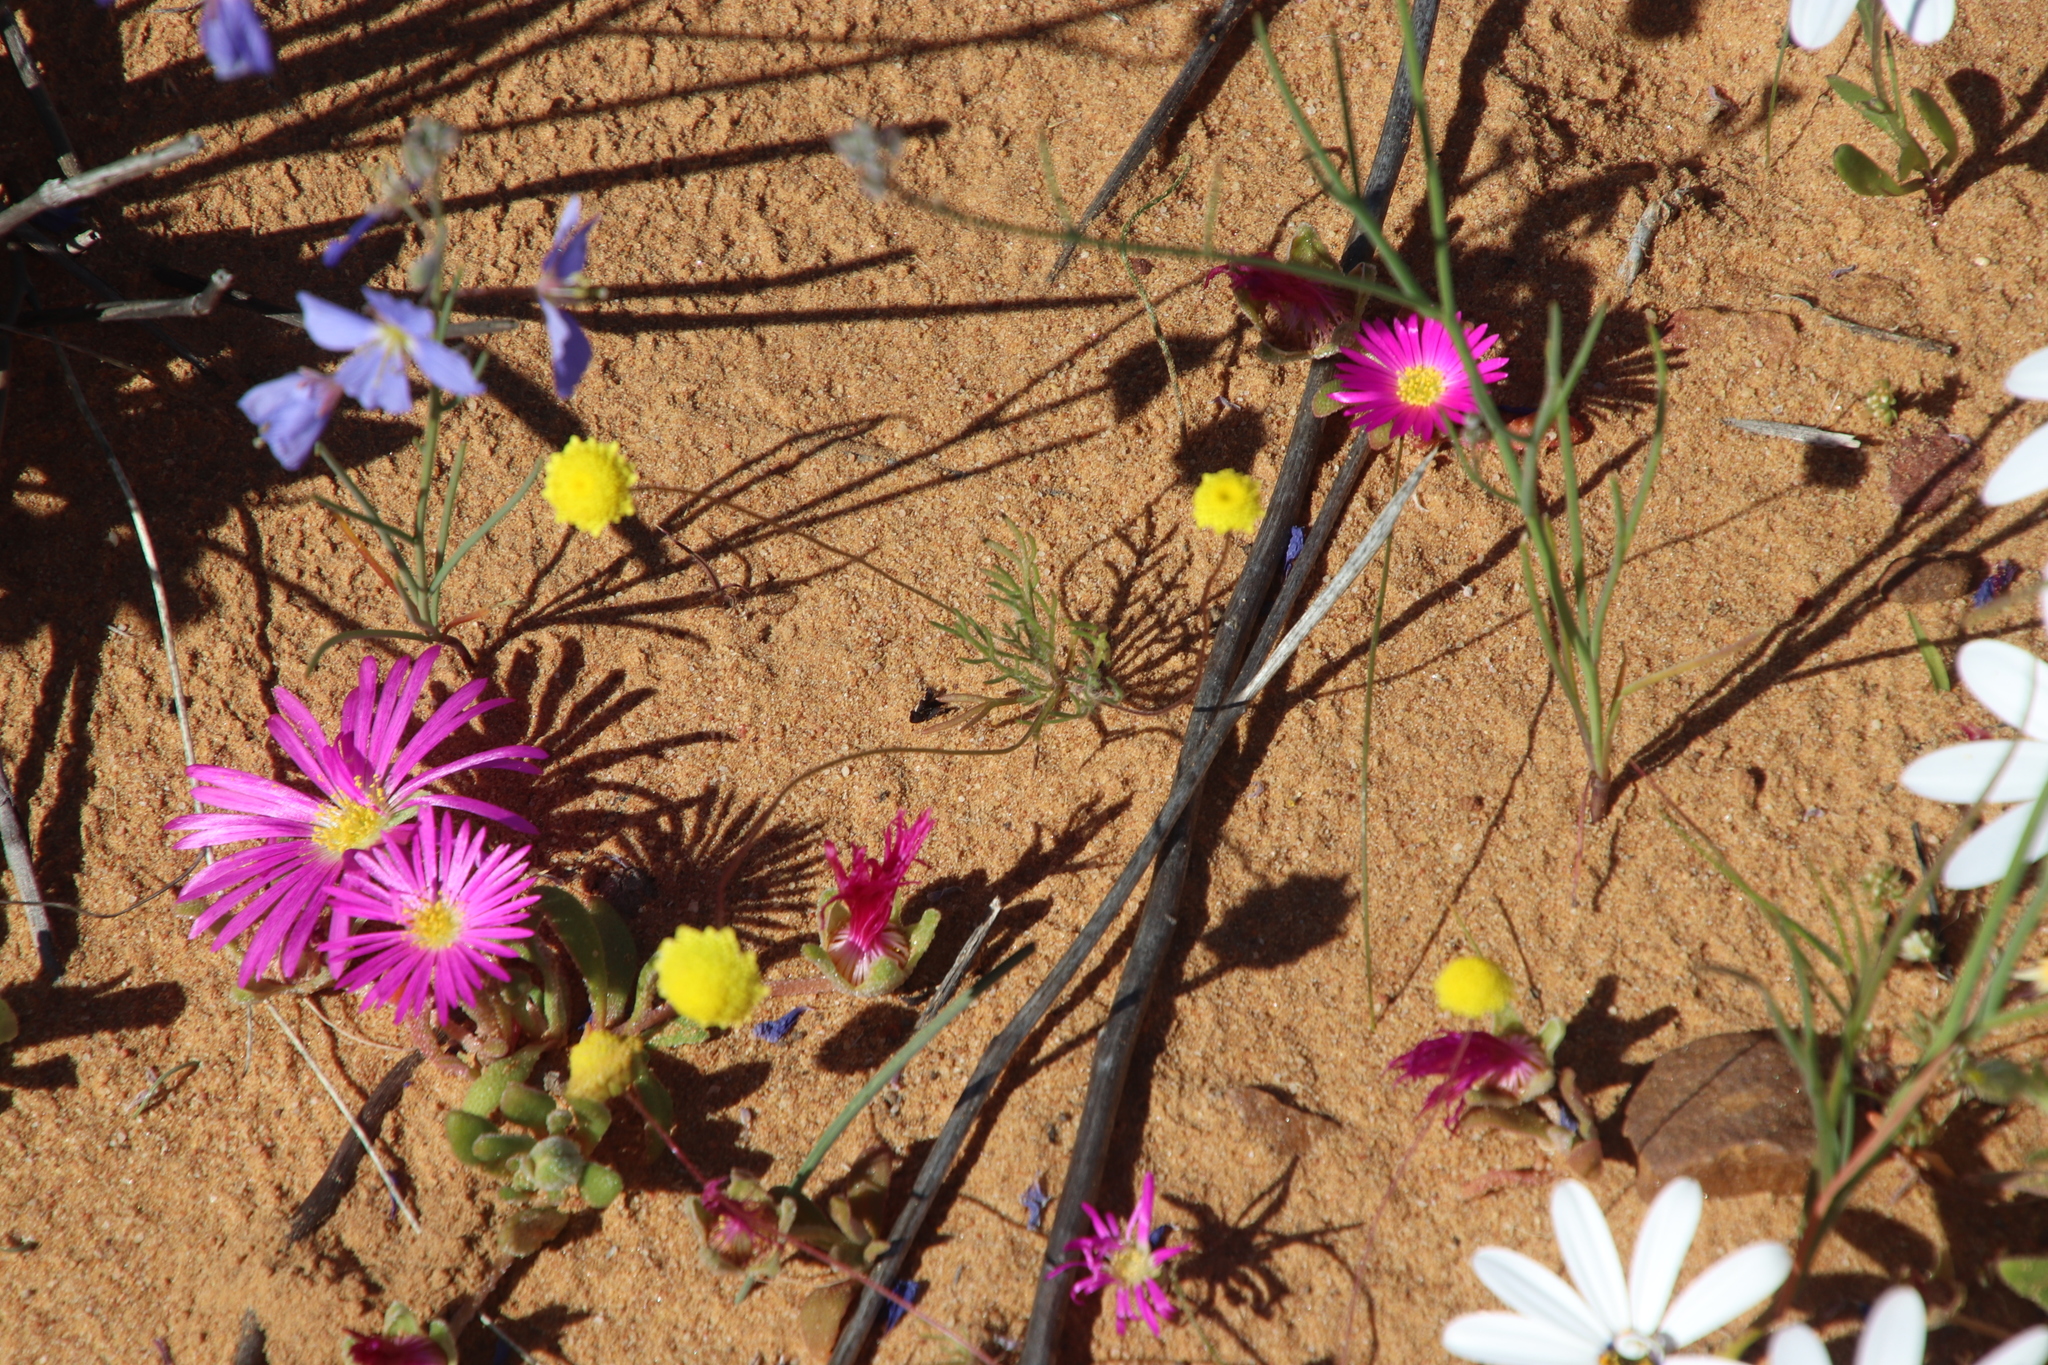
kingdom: Plantae
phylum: Tracheophyta
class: Magnoliopsida
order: Asterales
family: Asteraceae
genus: Cotula
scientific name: Cotula pruinosa
